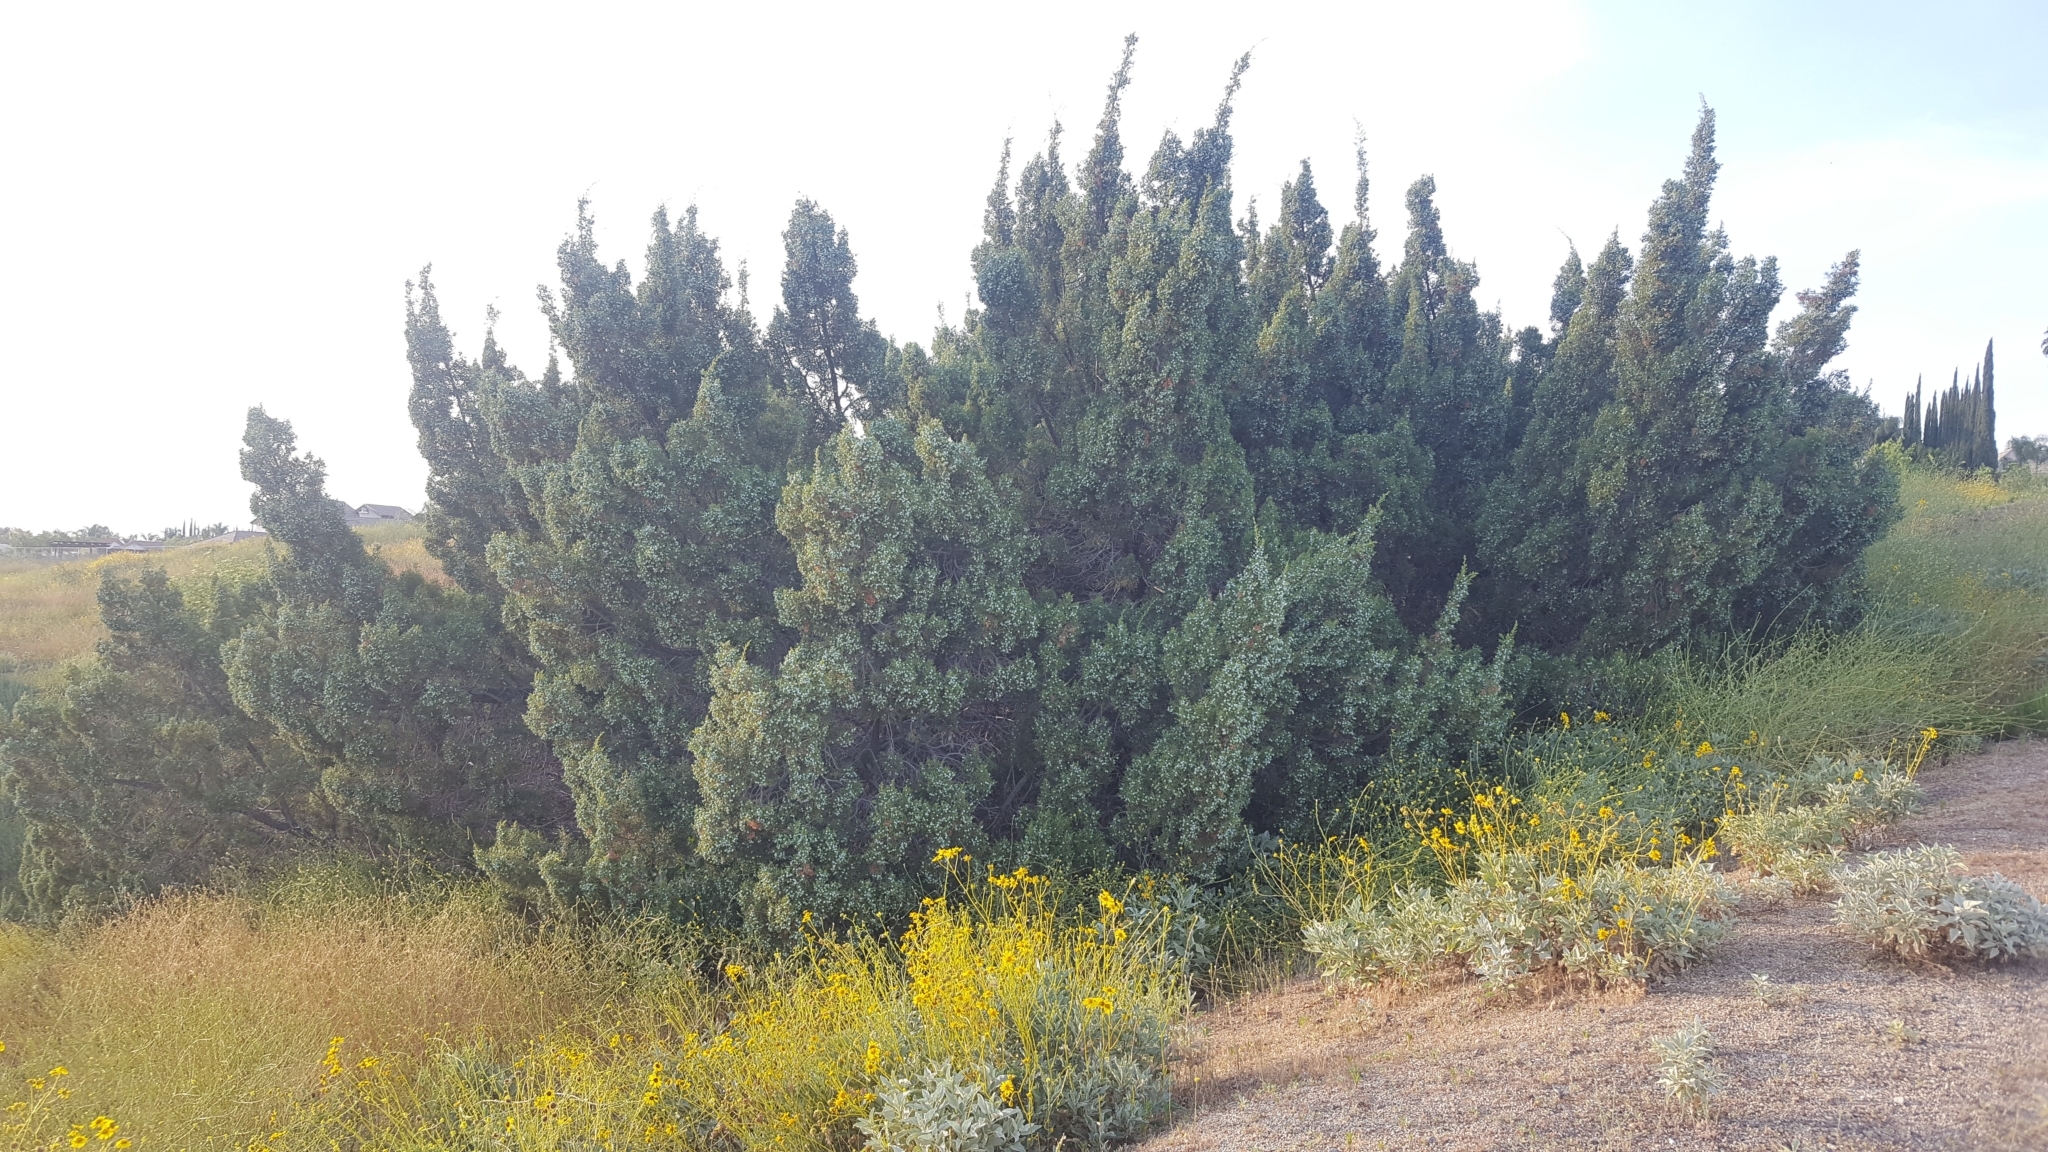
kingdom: Plantae
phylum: Tracheophyta
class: Pinopsida
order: Pinales
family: Cupressaceae
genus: Juniperus
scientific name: Juniperus californica
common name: California juniper
